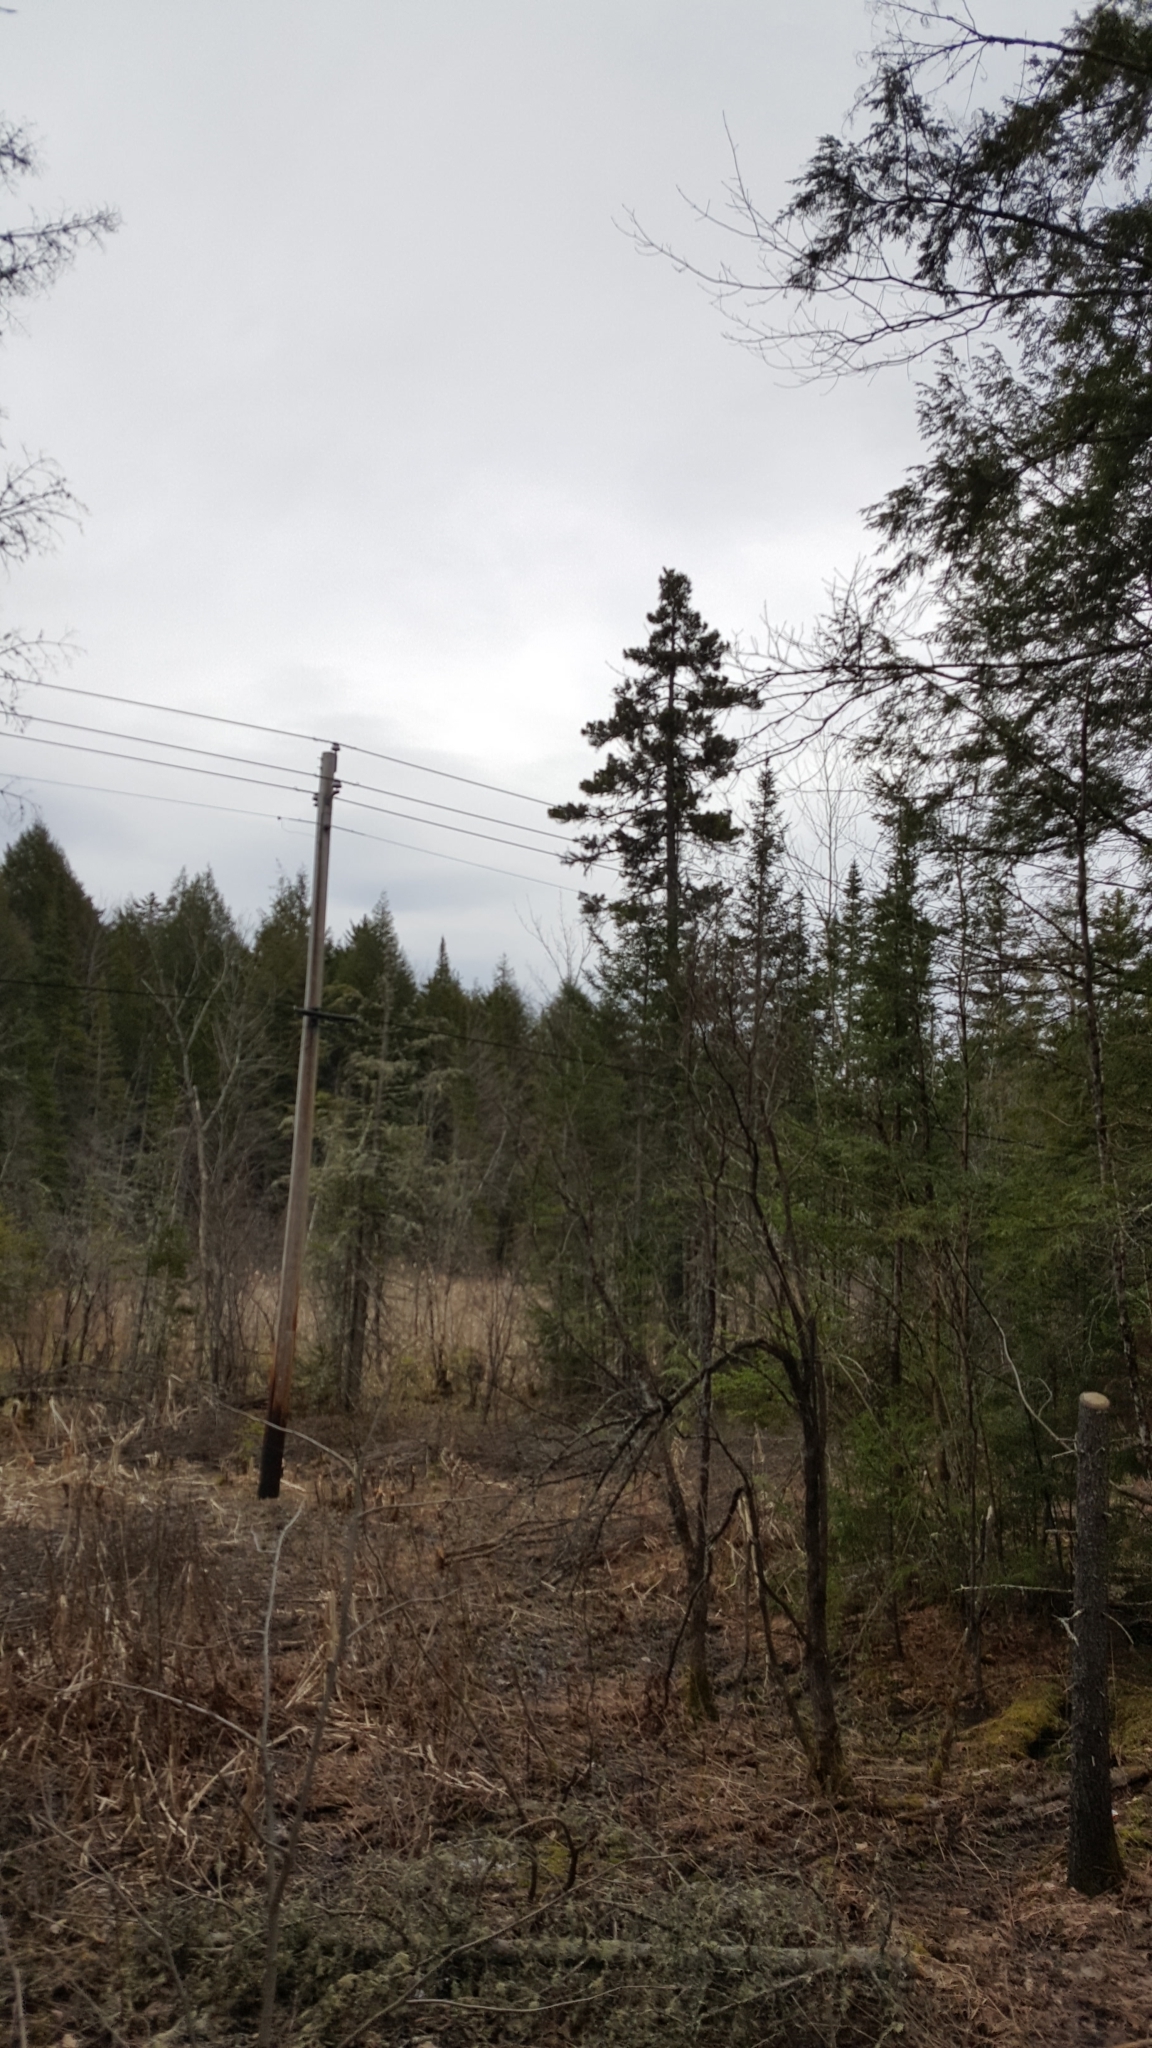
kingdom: Plantae
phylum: Tracheophyta
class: Pinopsida
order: Pinales
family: Pinaceae
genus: Picea
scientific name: Picea rubens
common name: Red spruce
